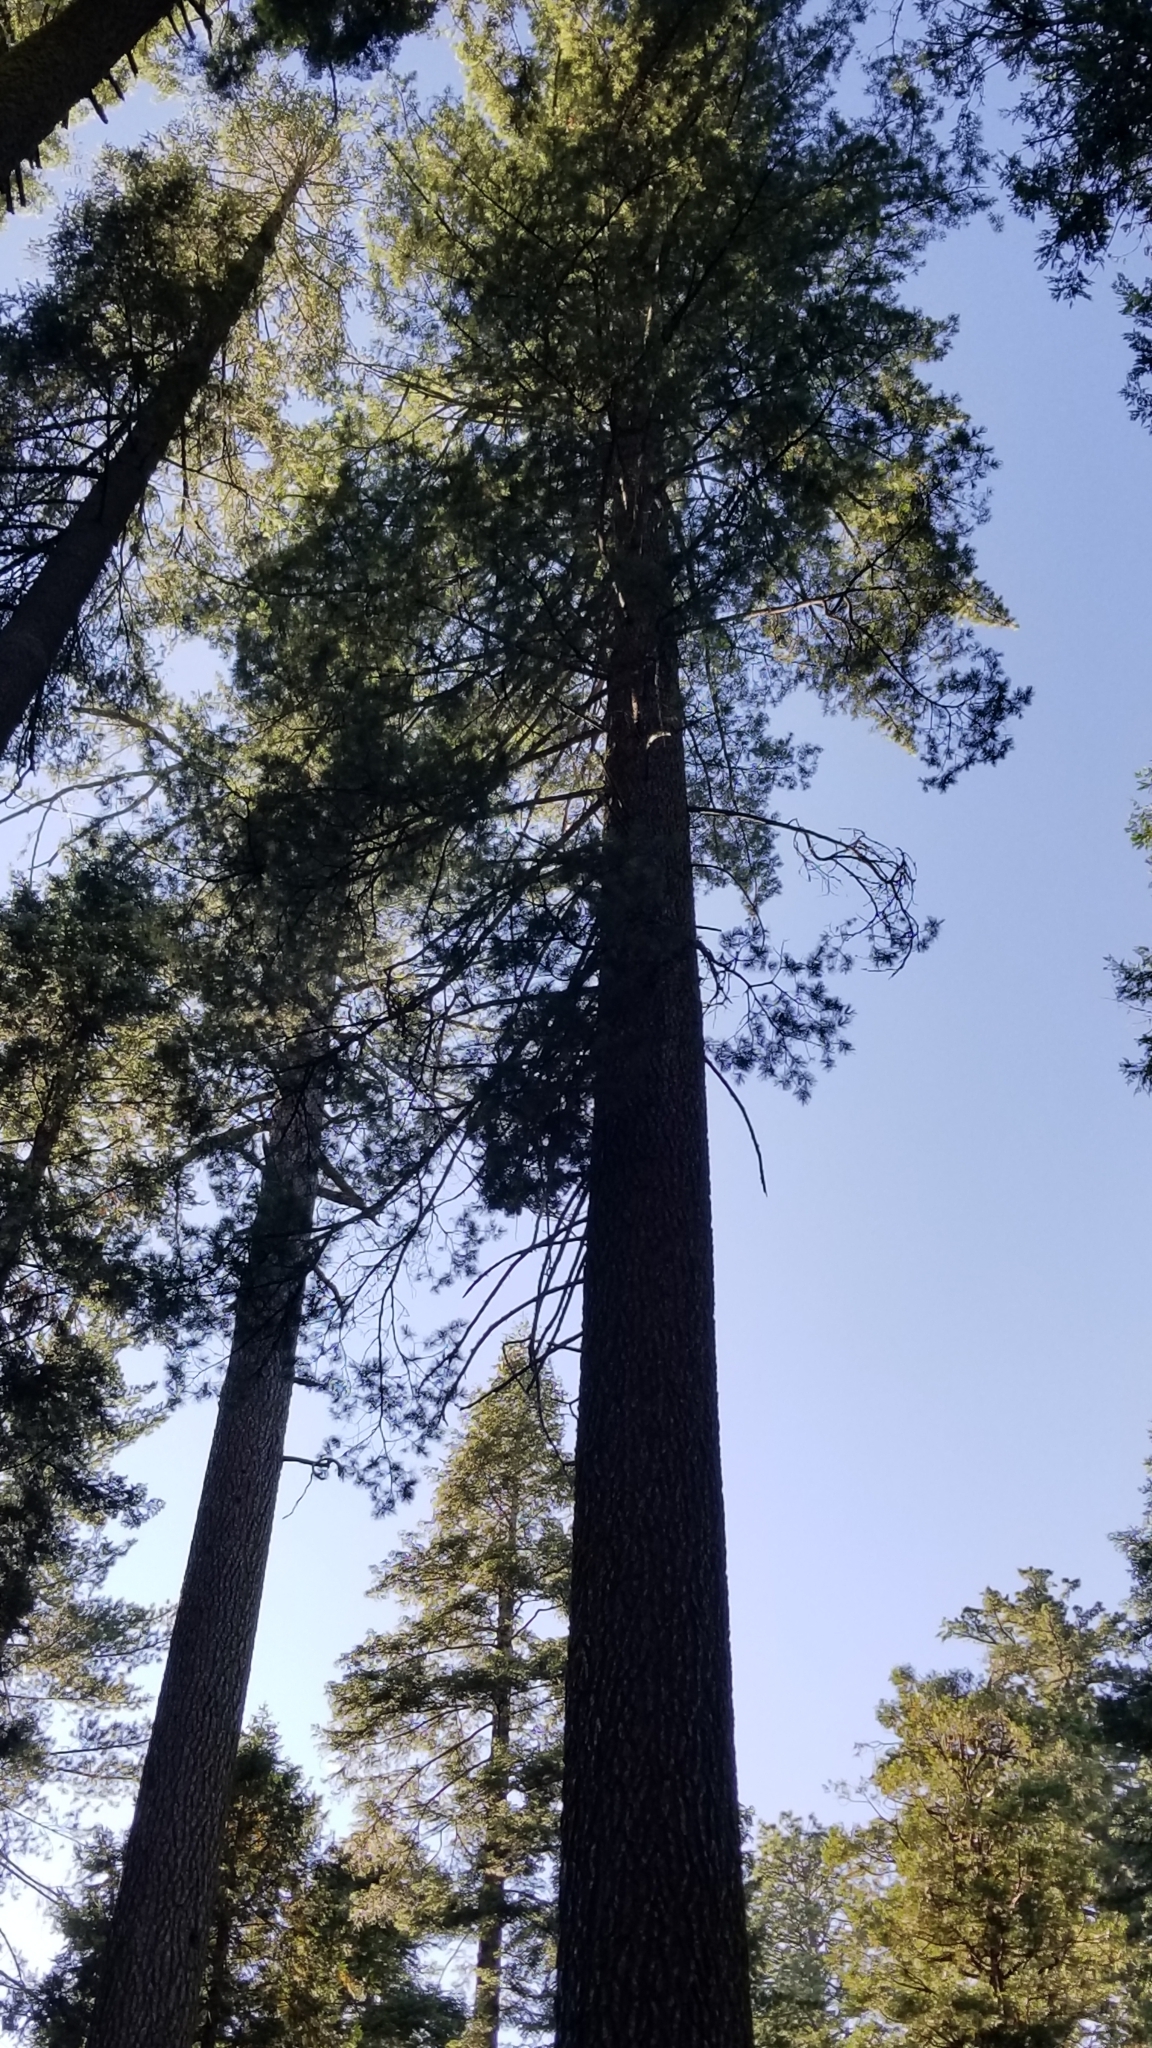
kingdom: Plantae
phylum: Tracheophyta
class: Pinopsida
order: Pinales
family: Pinaceae
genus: Pinus
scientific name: Pinus lambertiana
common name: Sugar pine
